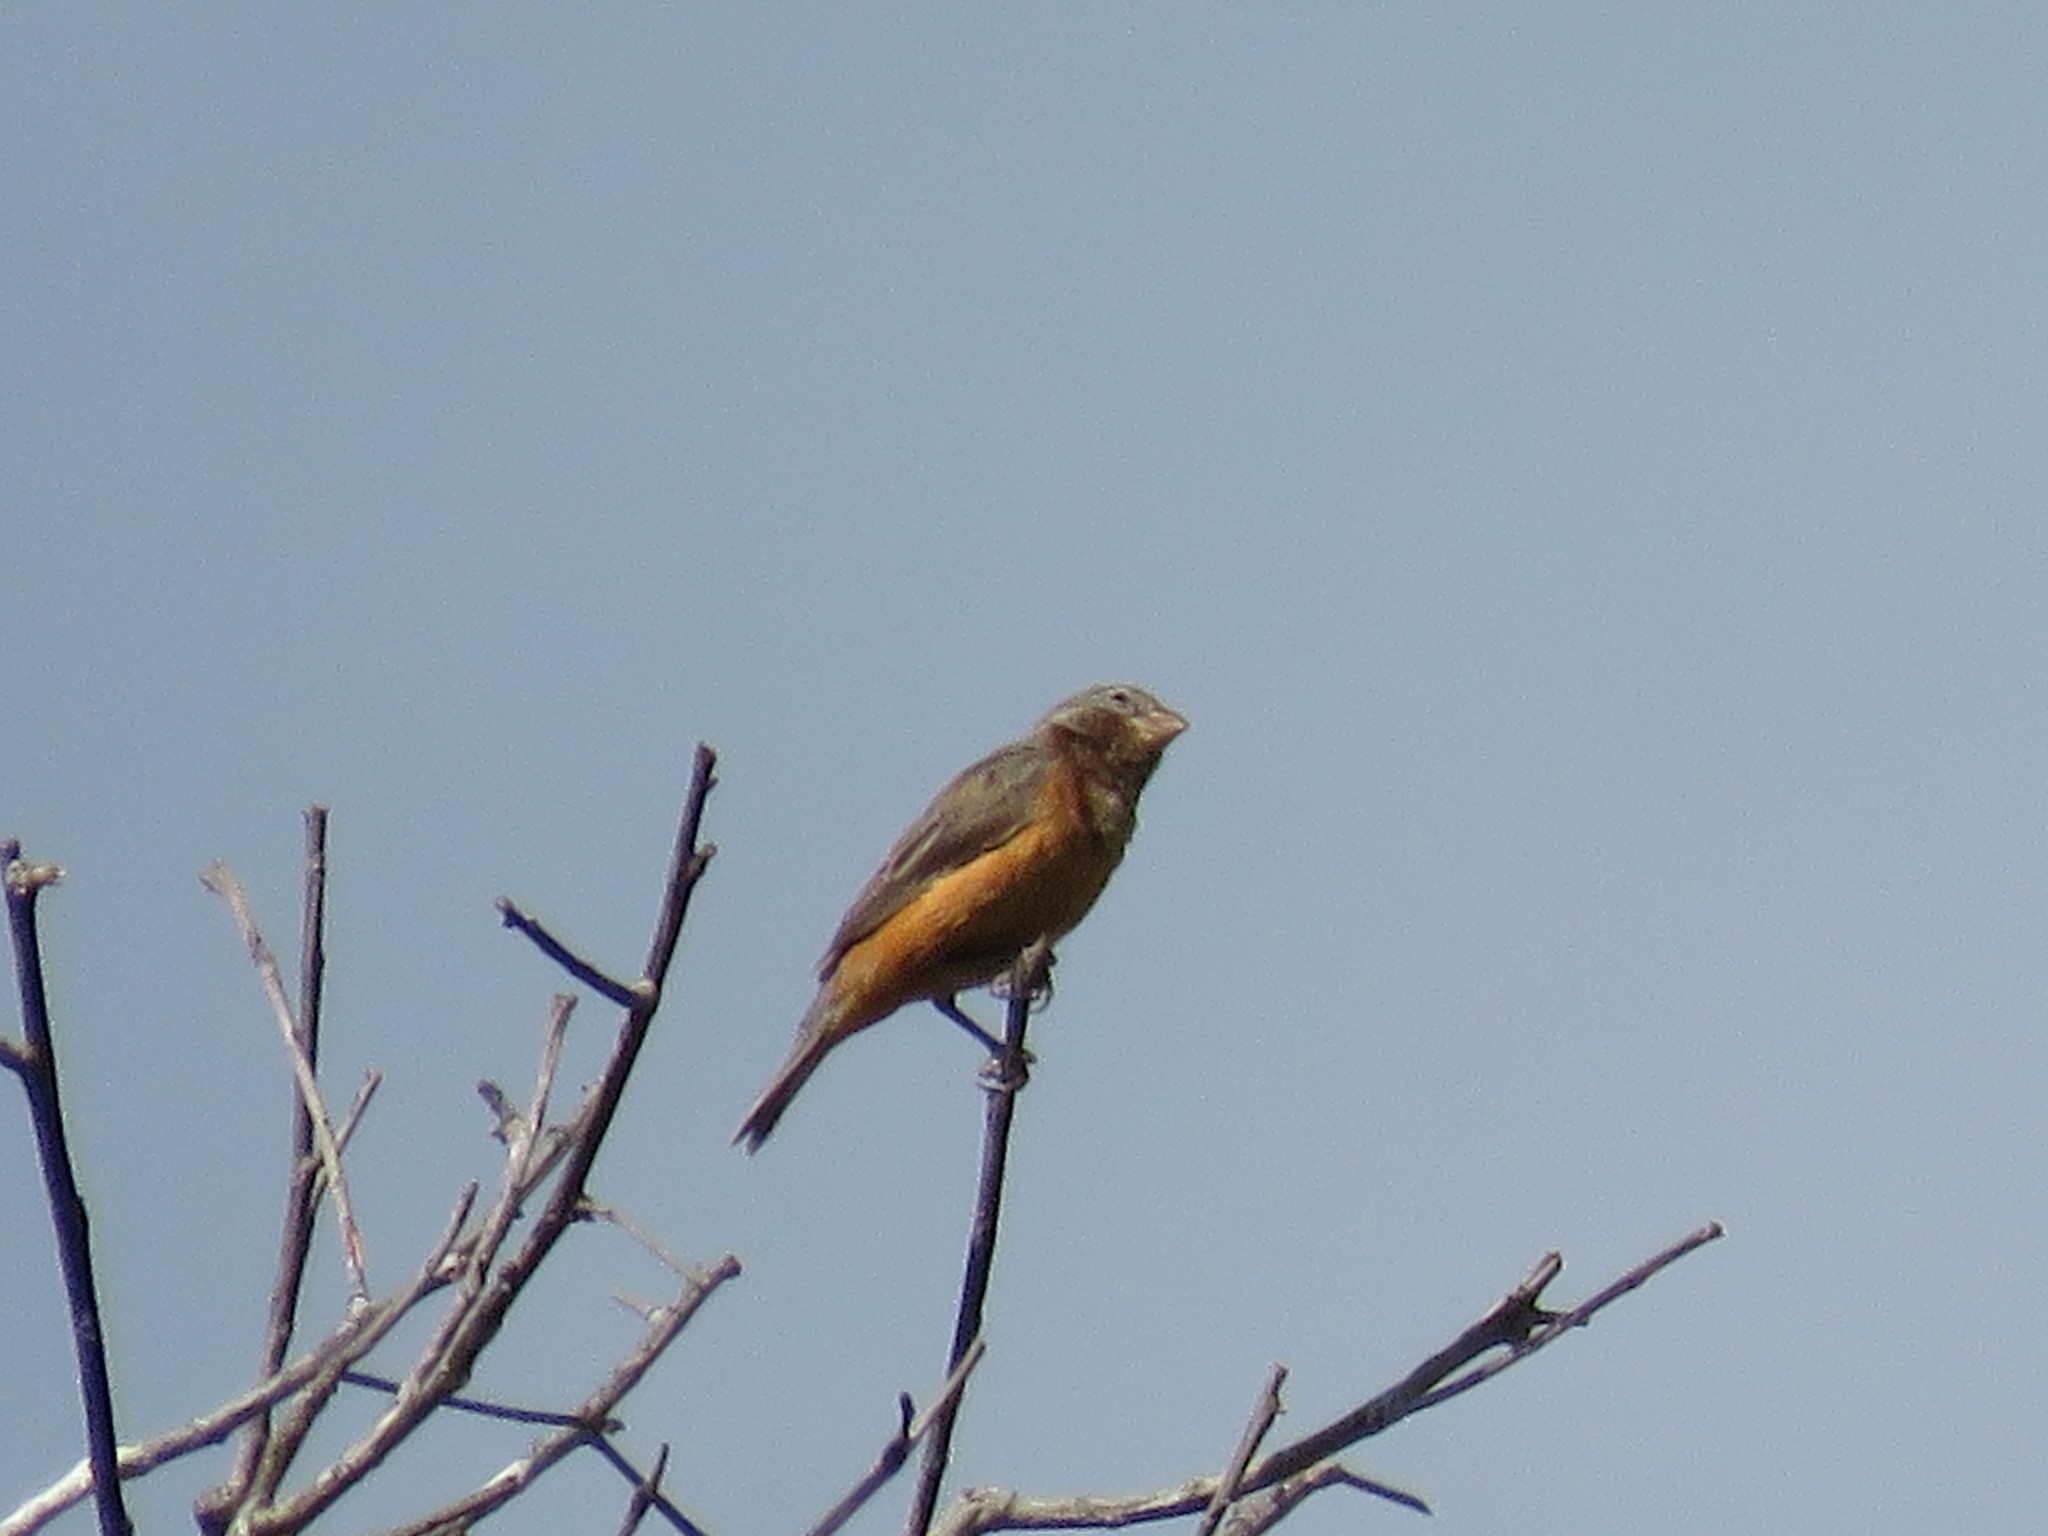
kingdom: Animalia
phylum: Chordata
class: Aves
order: Passeriformes
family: Thraupidae
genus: Sporophila
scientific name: Sporophila ruficollis
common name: Dark-throated seedeater
